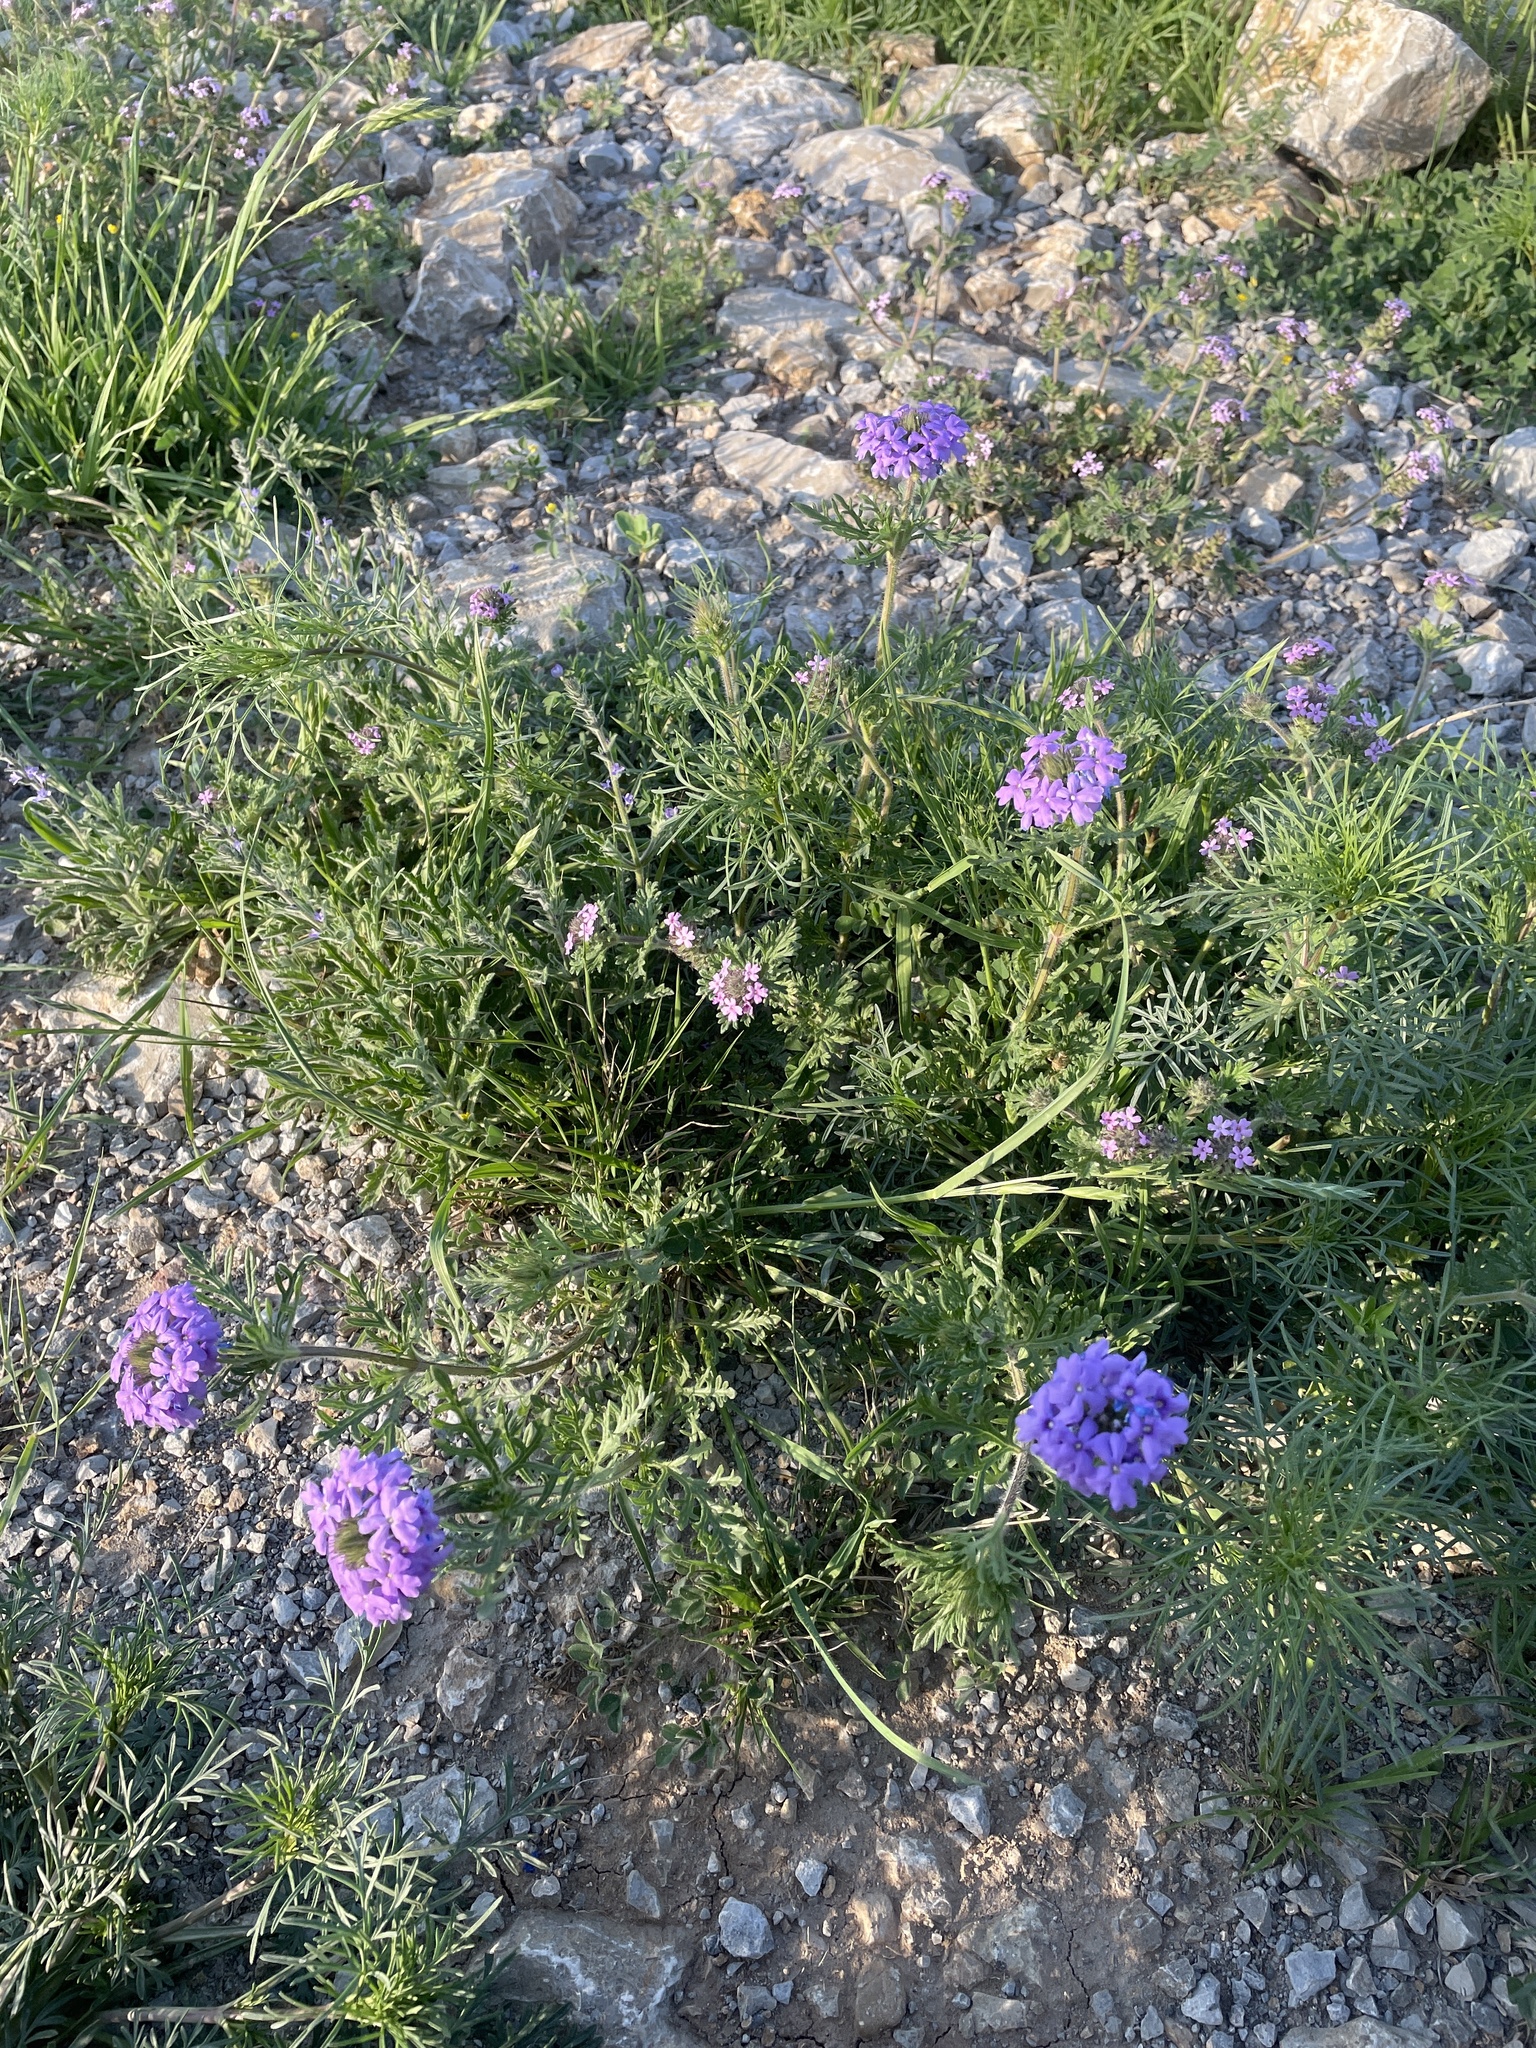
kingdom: Plantae
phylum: Tracheophyta
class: Magnoliopsida
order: Lamiales
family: Verbenaceae
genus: Verbena
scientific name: Verbena bipinnatifida
